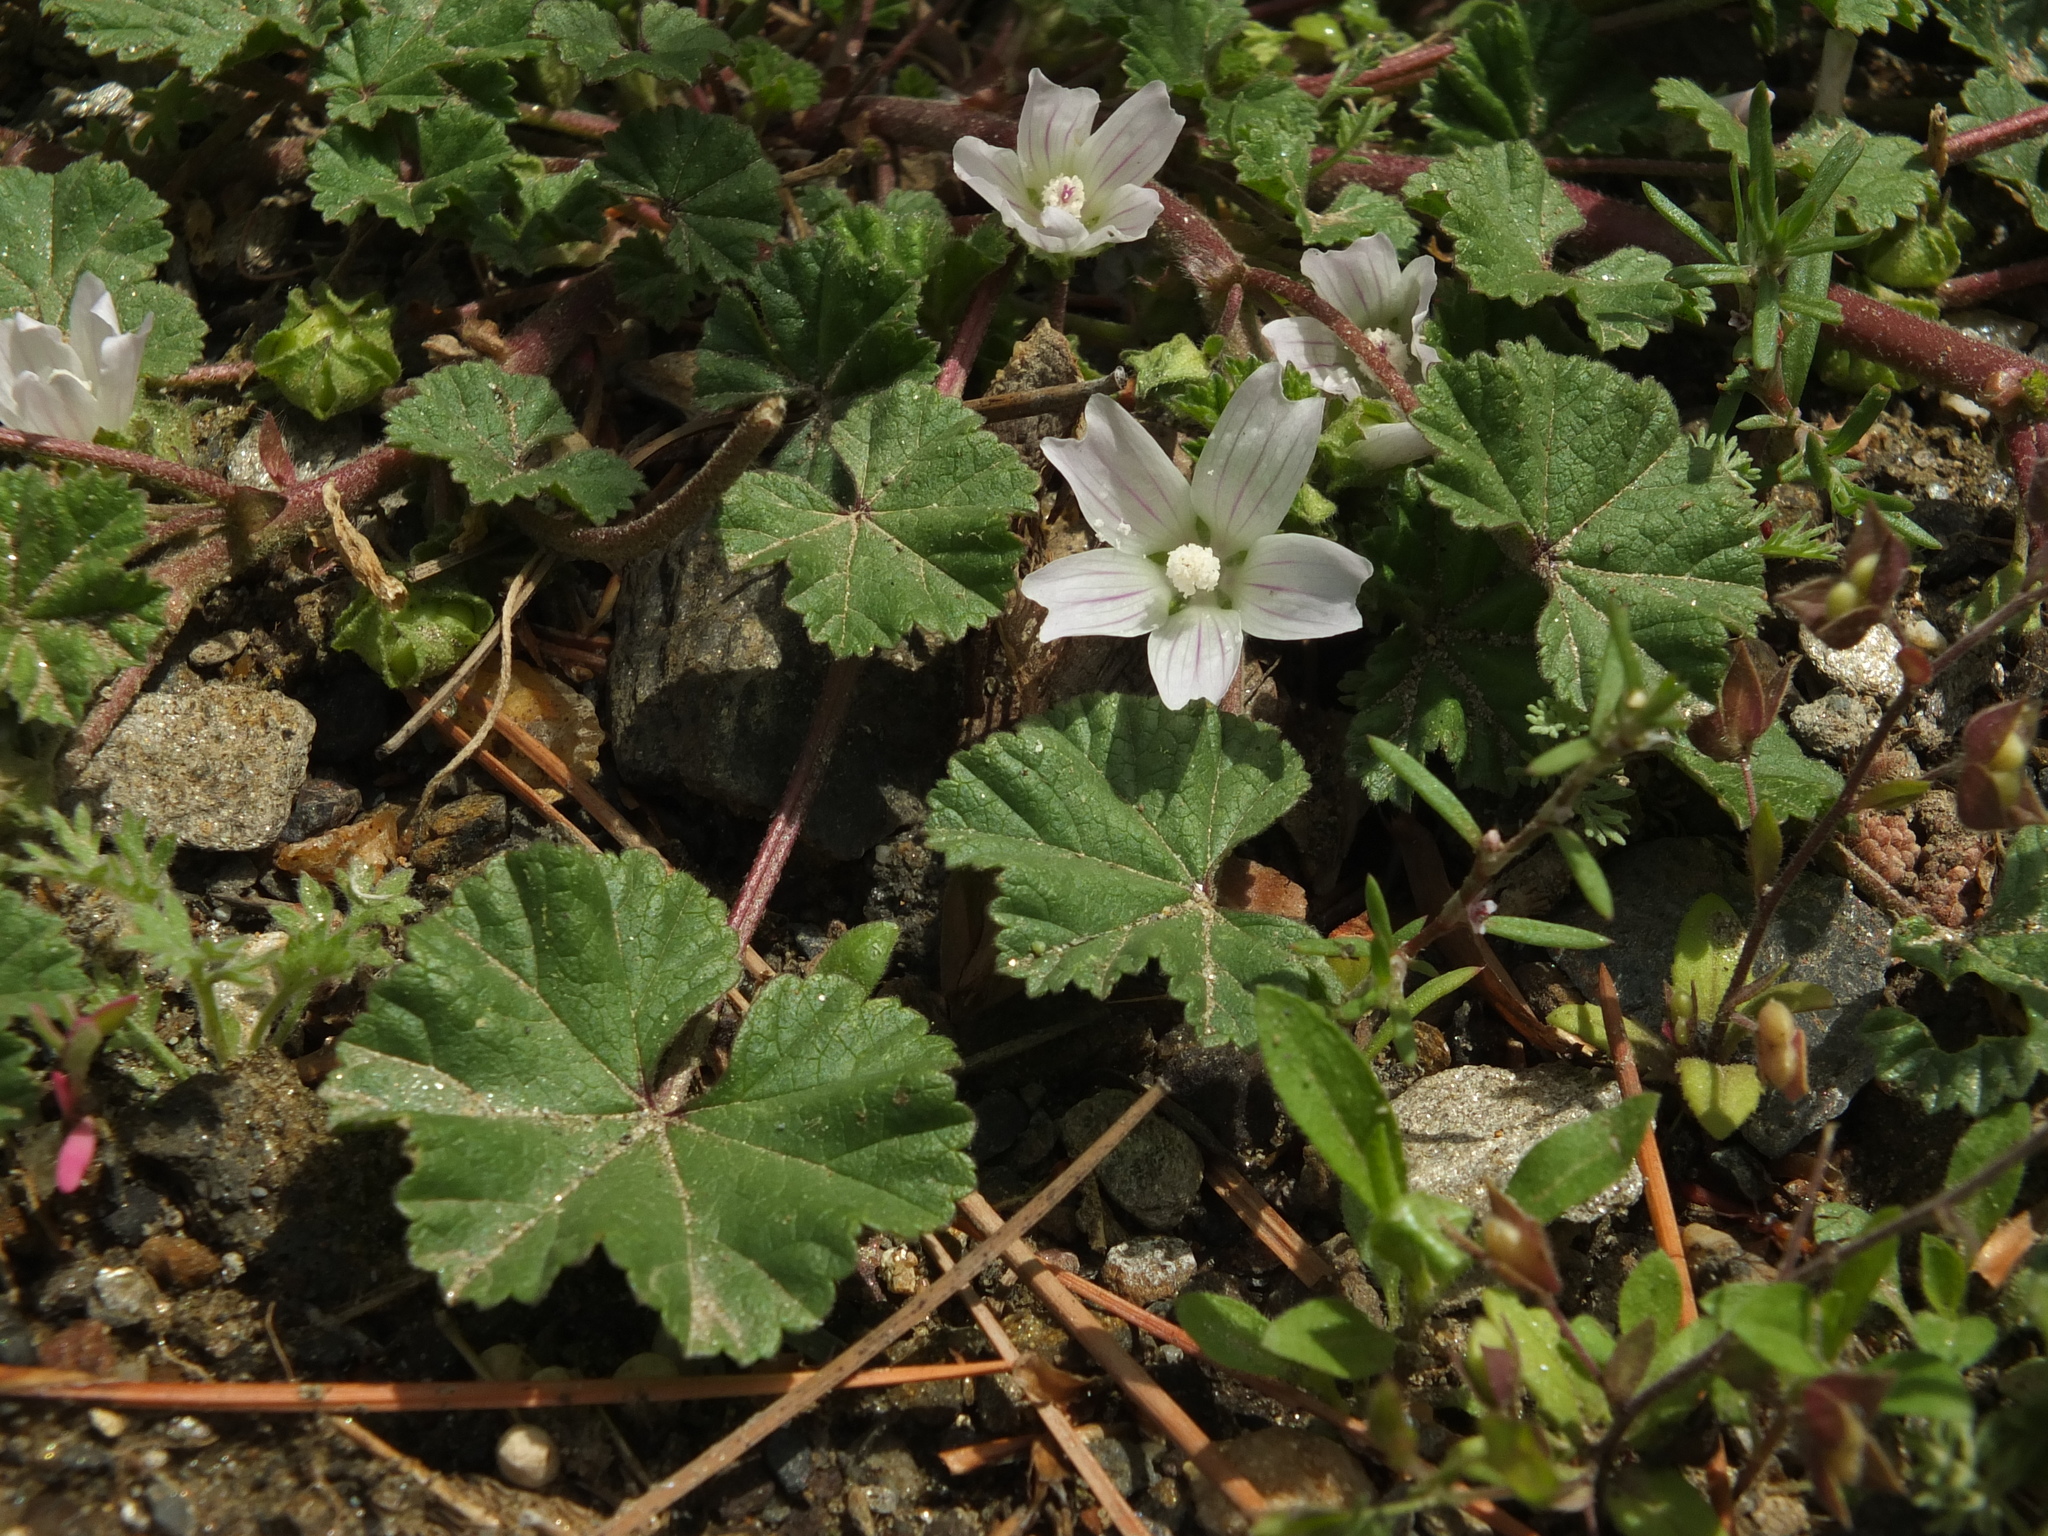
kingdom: Plantae
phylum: Tracheophyta
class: Magnoliopsida
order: Malvales
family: Malvaceae
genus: Malva
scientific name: Malva neglecta
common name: Common mallow
